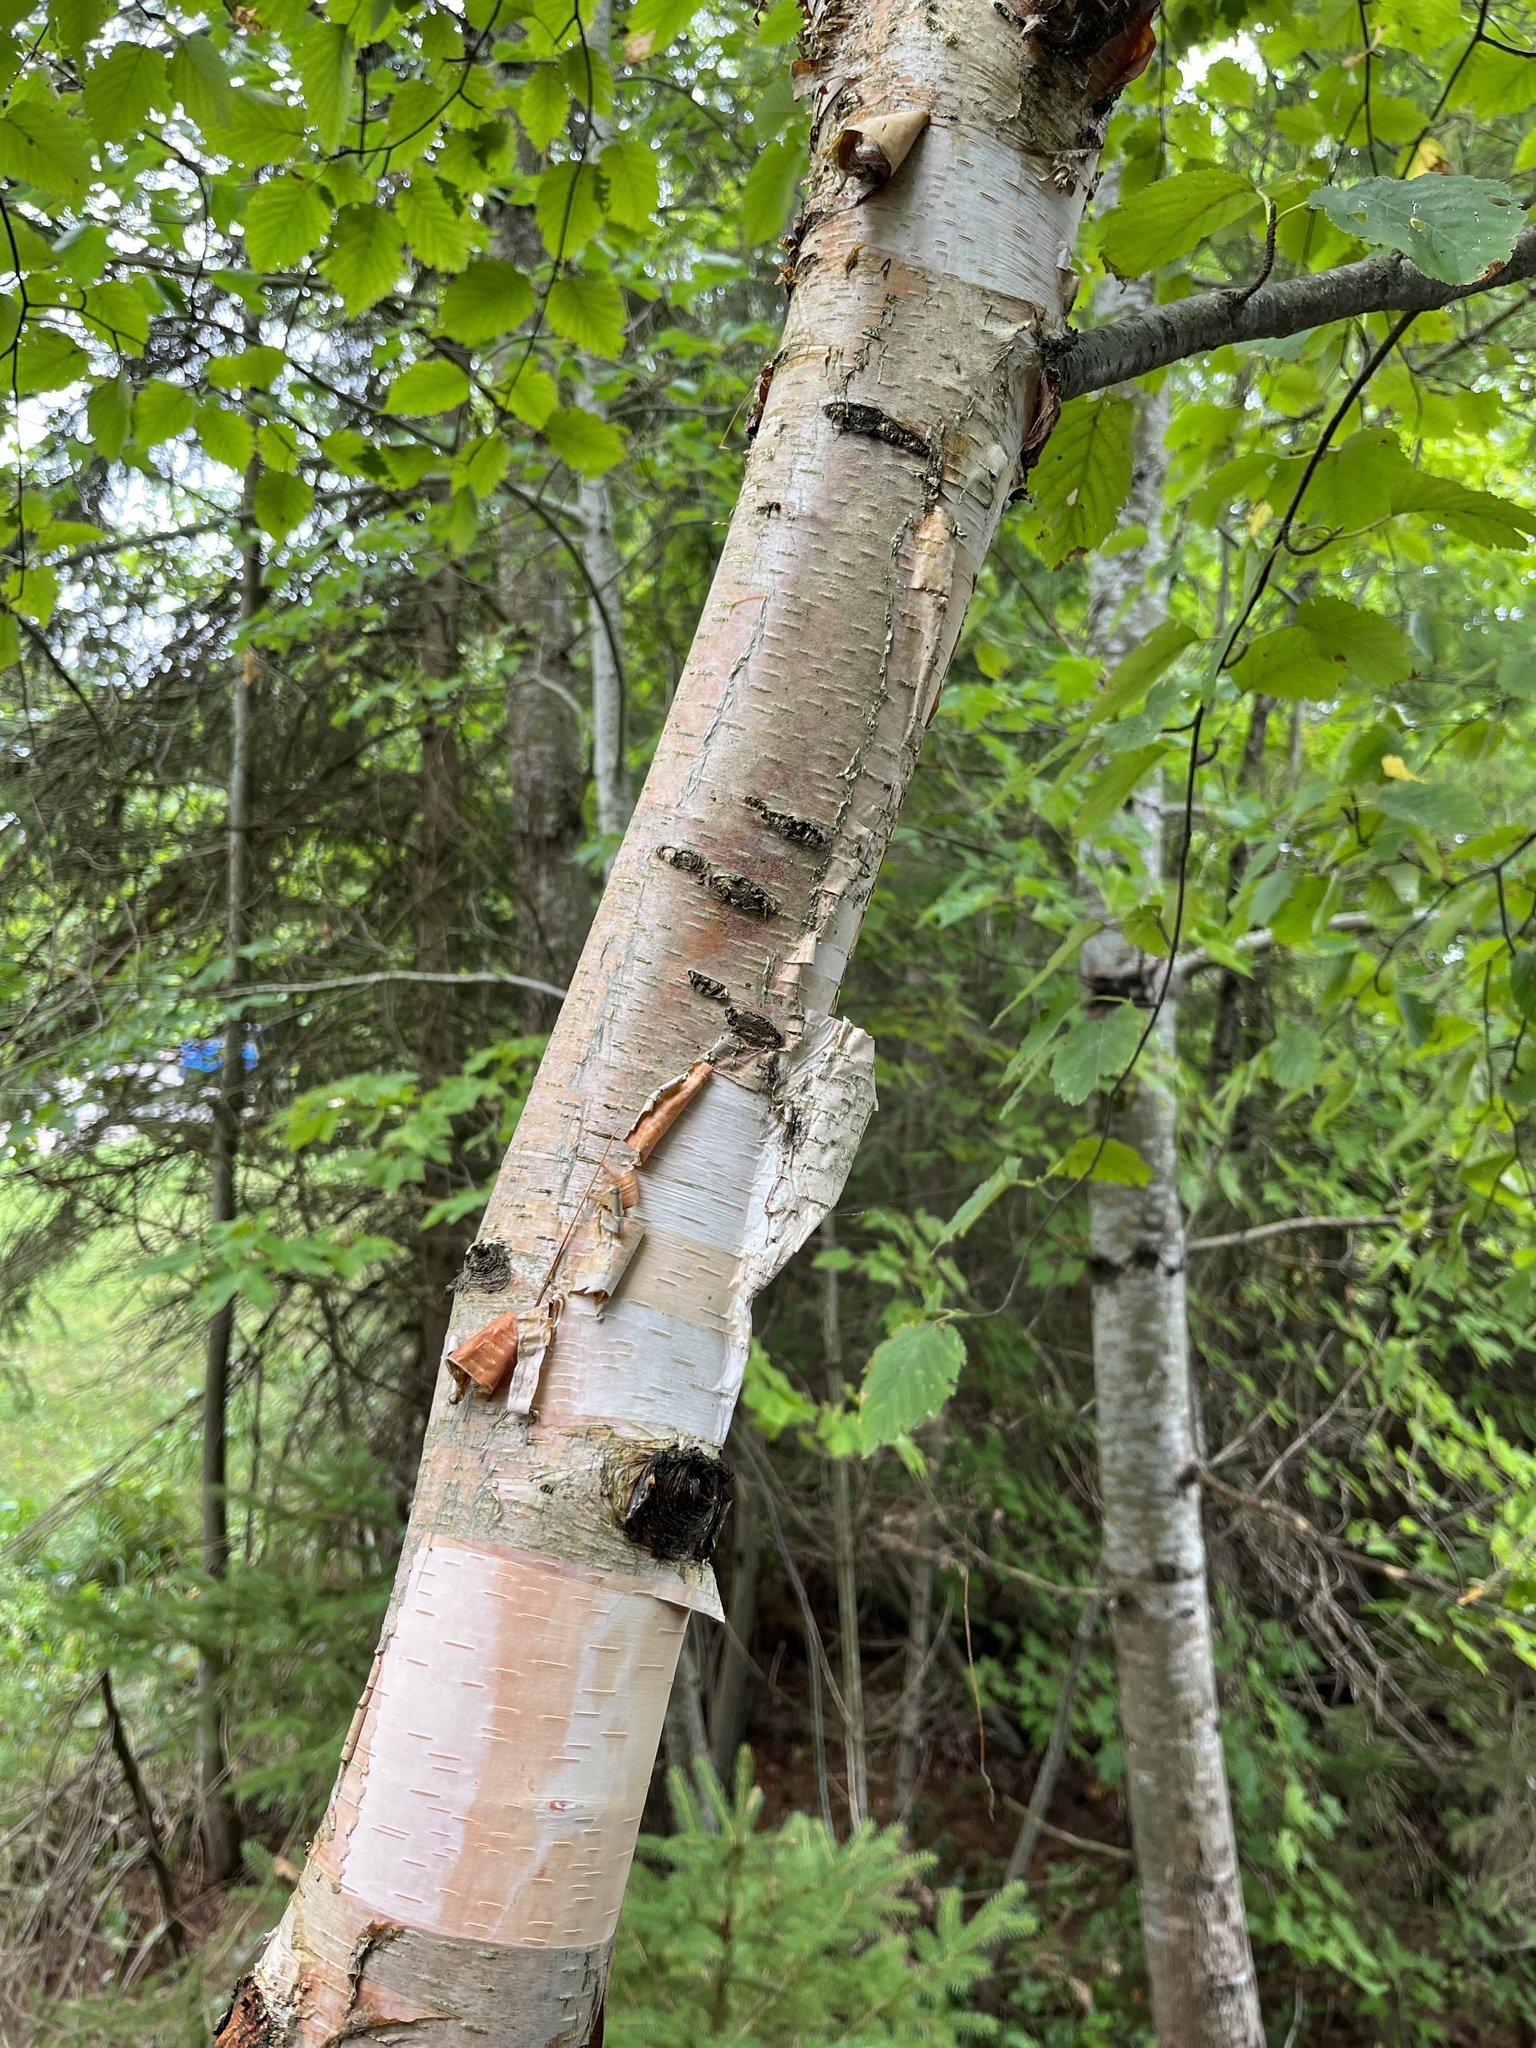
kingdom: Plantae
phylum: Tracheophyta
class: Magnoliopsida
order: Fagales
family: Betulaceae
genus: Betula
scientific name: Betula papyrifera
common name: Paper birch
